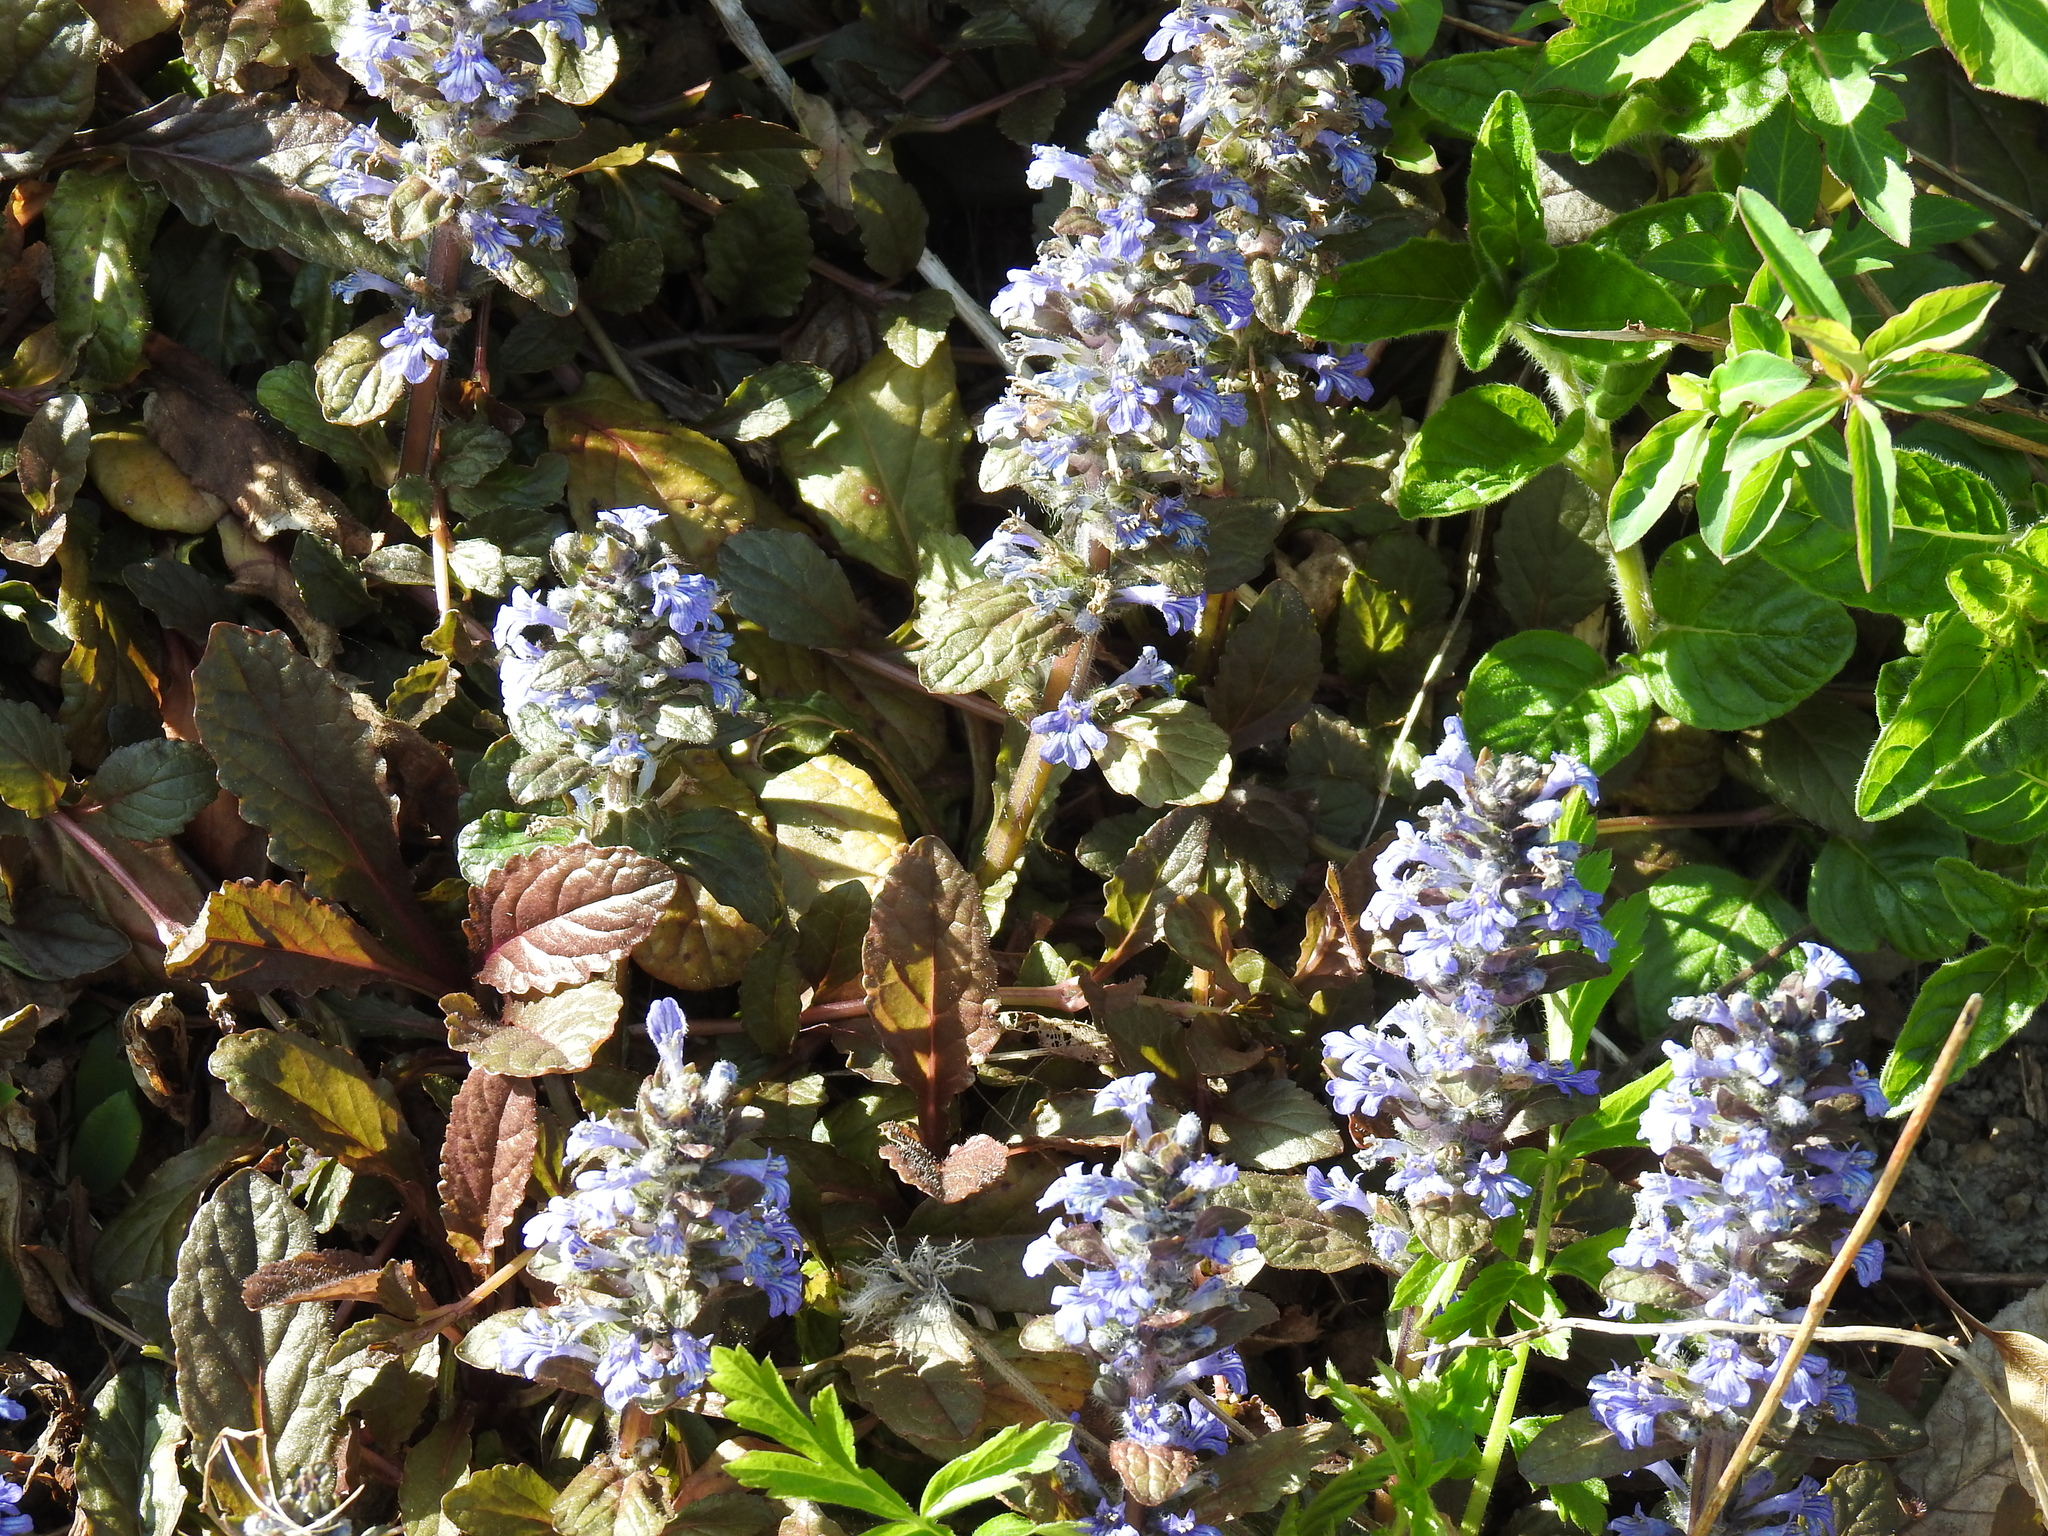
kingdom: Plantae
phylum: Tracheophyta
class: Magnoliopsida
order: Lamiales
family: Lamiaceae
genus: Ajuga
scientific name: Ajuga reptans
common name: Bugle
